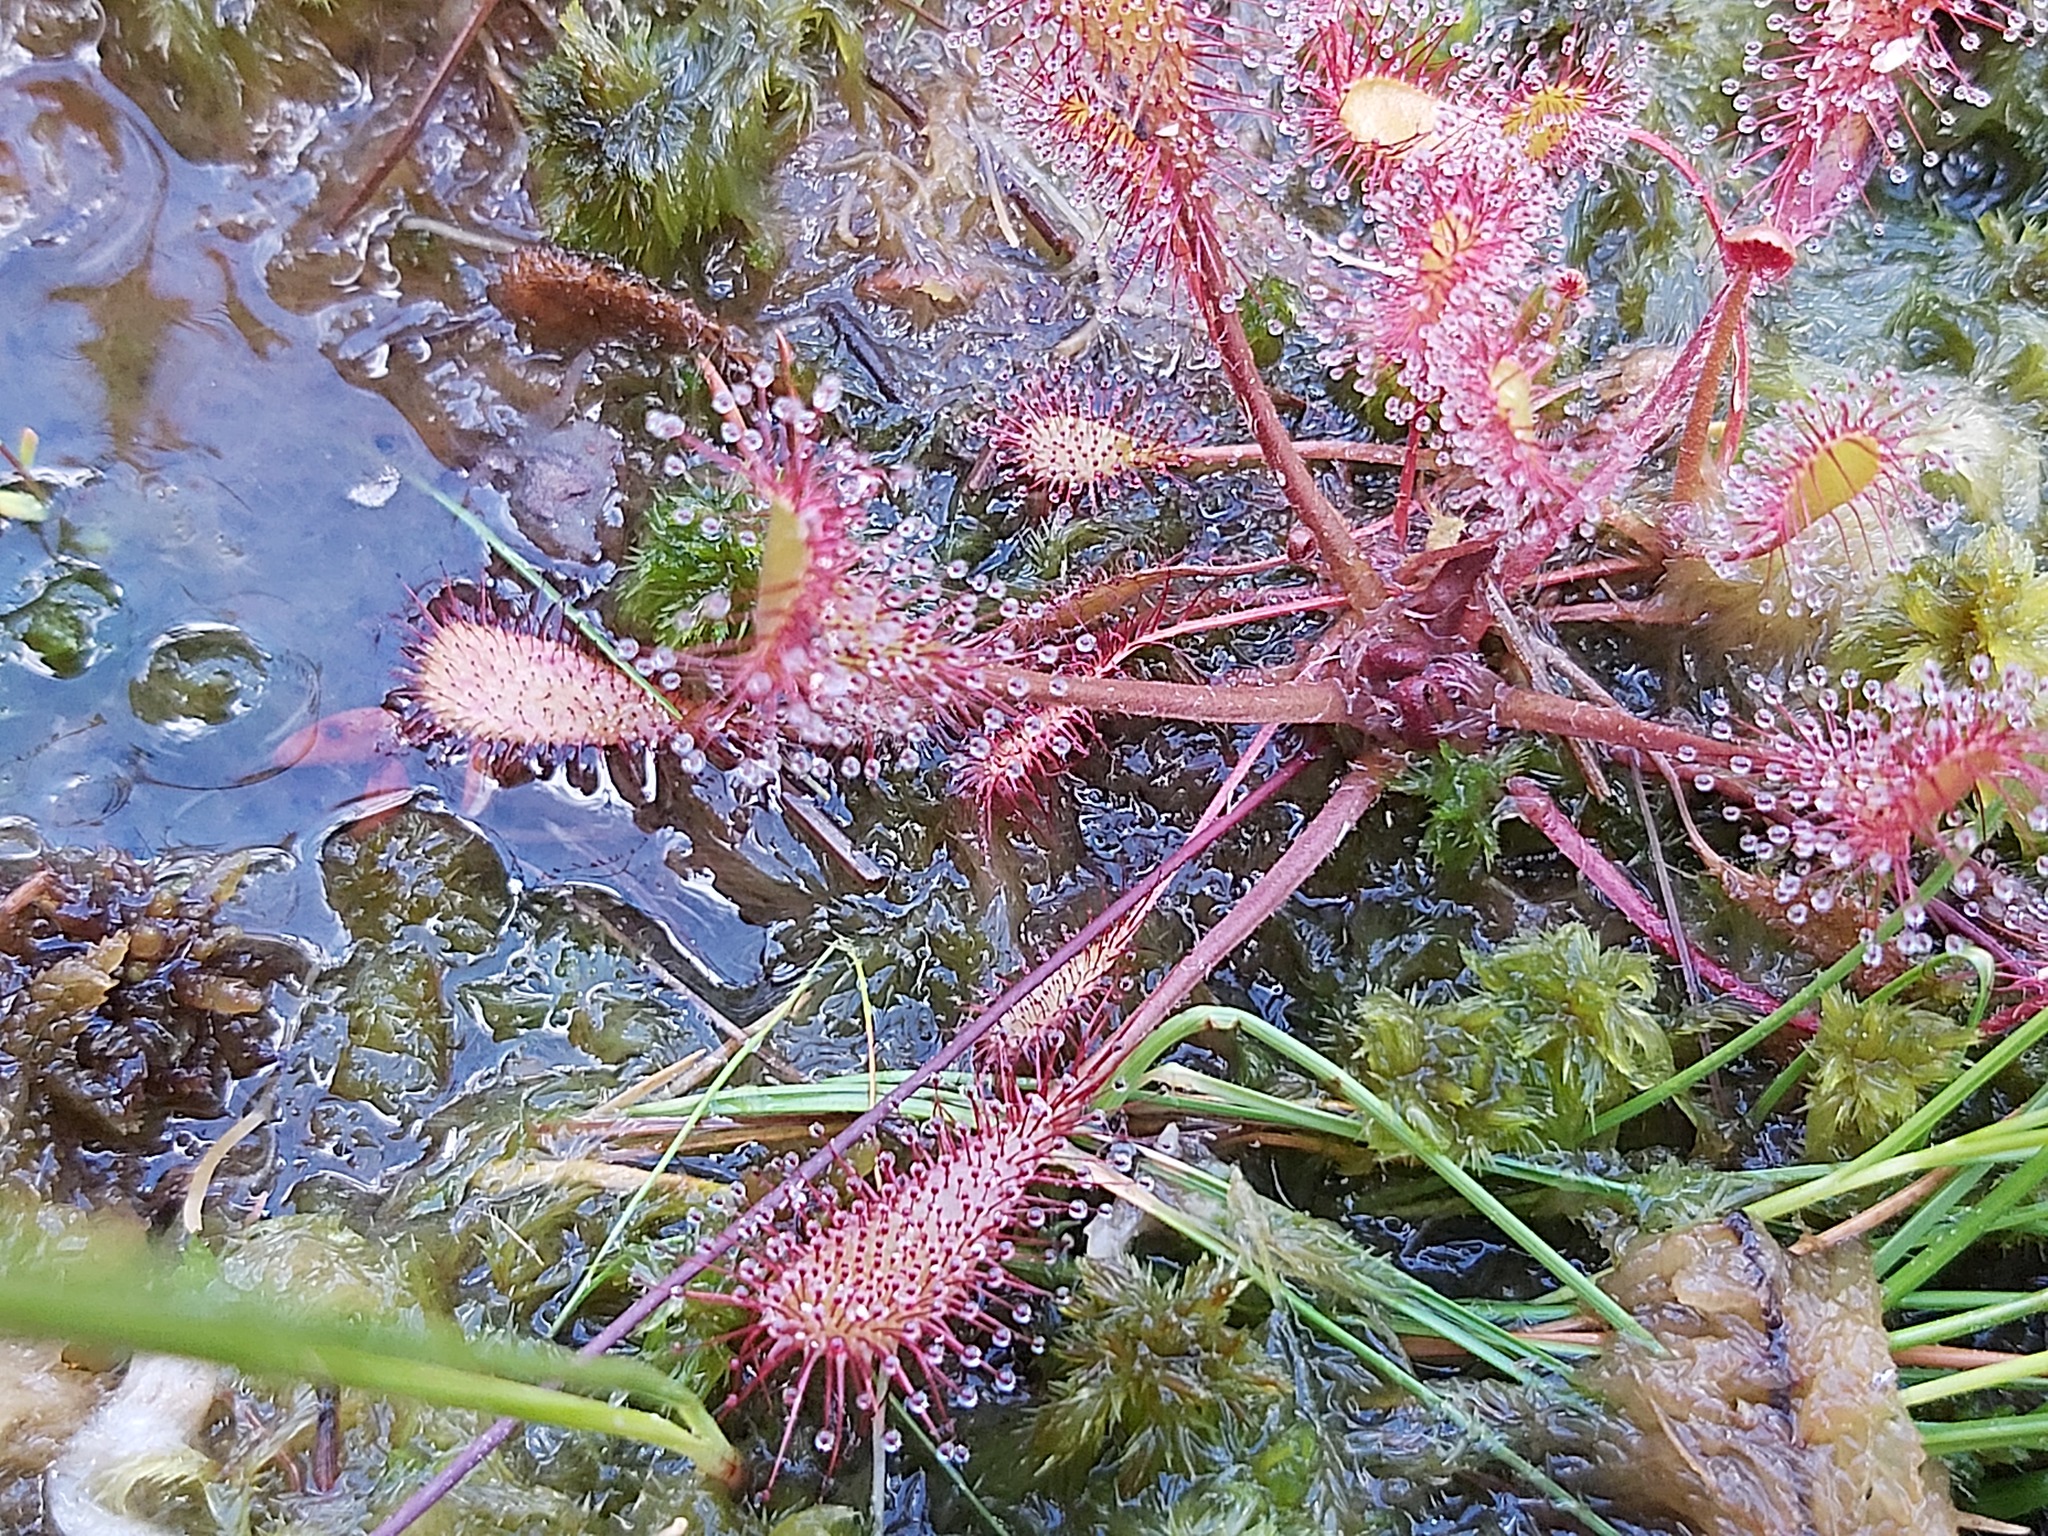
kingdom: Plantae
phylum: Tracheophyta
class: Magnoliopsida
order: Caryophyllales
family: Droseraceae
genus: Drosera
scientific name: Drosera obovata
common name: Ivan's paddle
